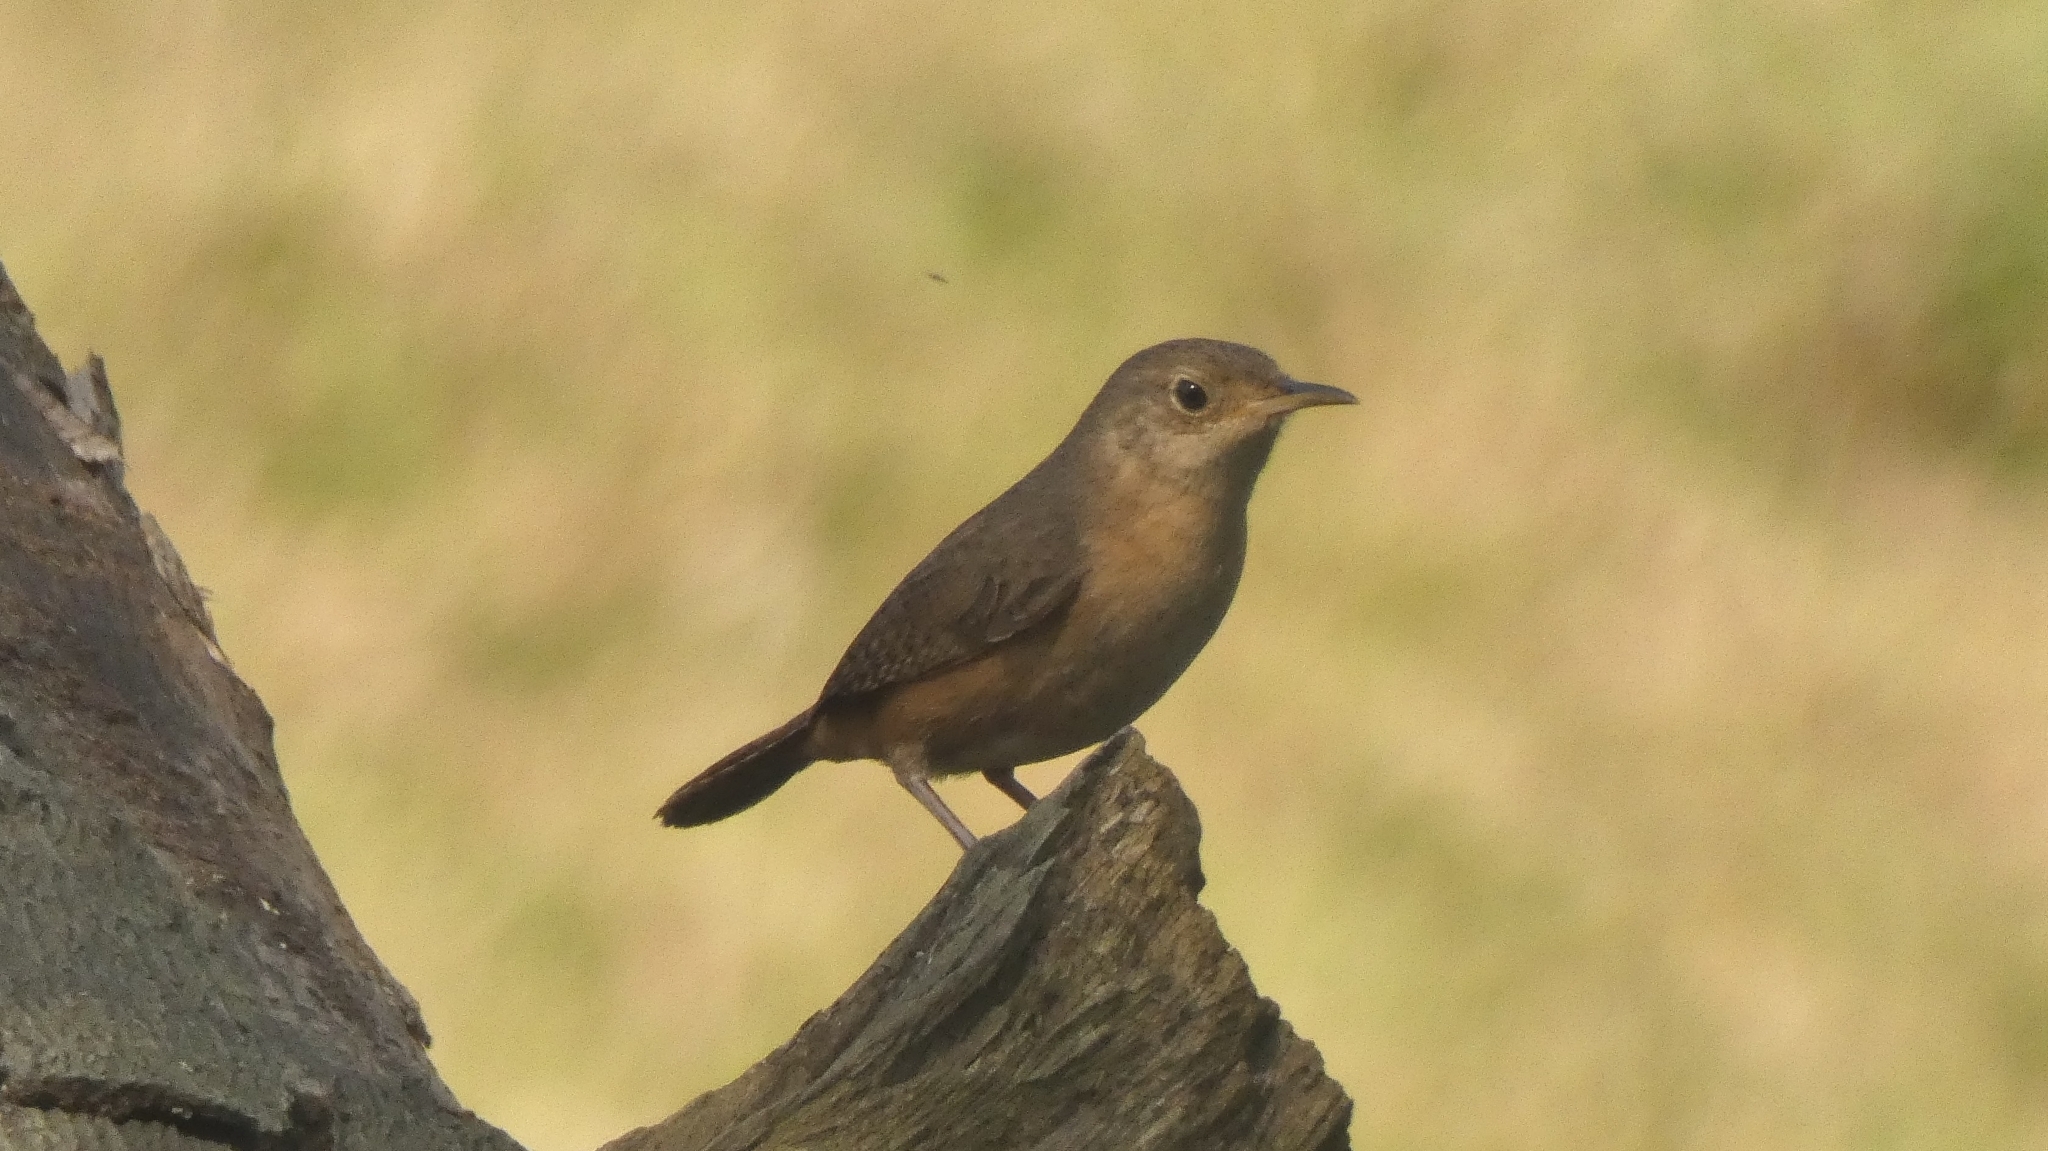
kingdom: Animalia
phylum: Chordata
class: Aves
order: Passeriformes
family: Troglodytidae
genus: Troglodytes
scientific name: Troglodytes aedon
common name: House wren
